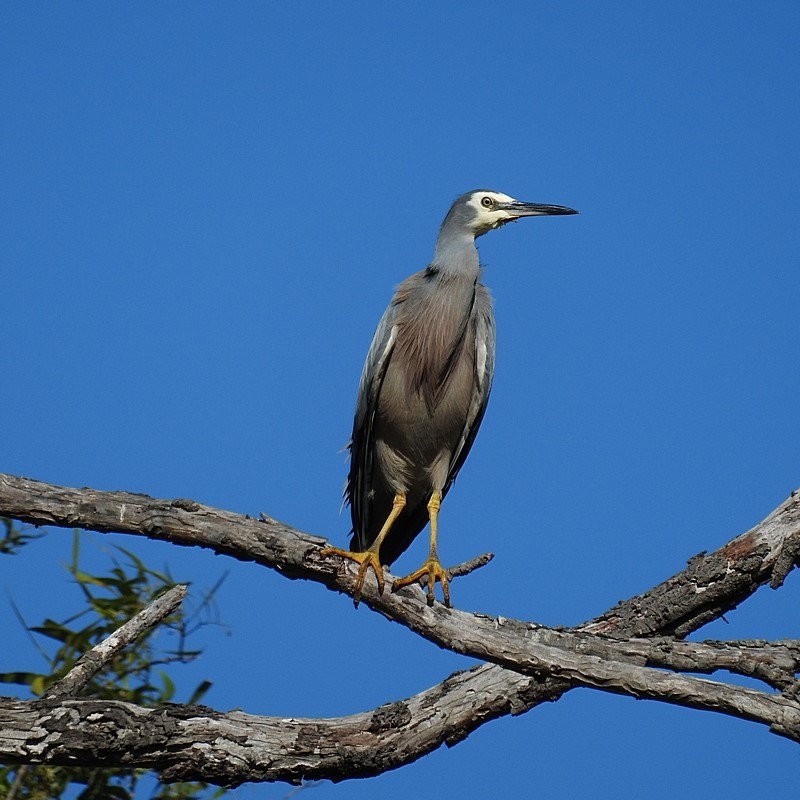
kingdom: Animalia
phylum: Chordata
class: Aves
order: Pelecaniformes
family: Ardeidae
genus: Egretta
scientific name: Egretta novaehollandiae
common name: White-faced heron
